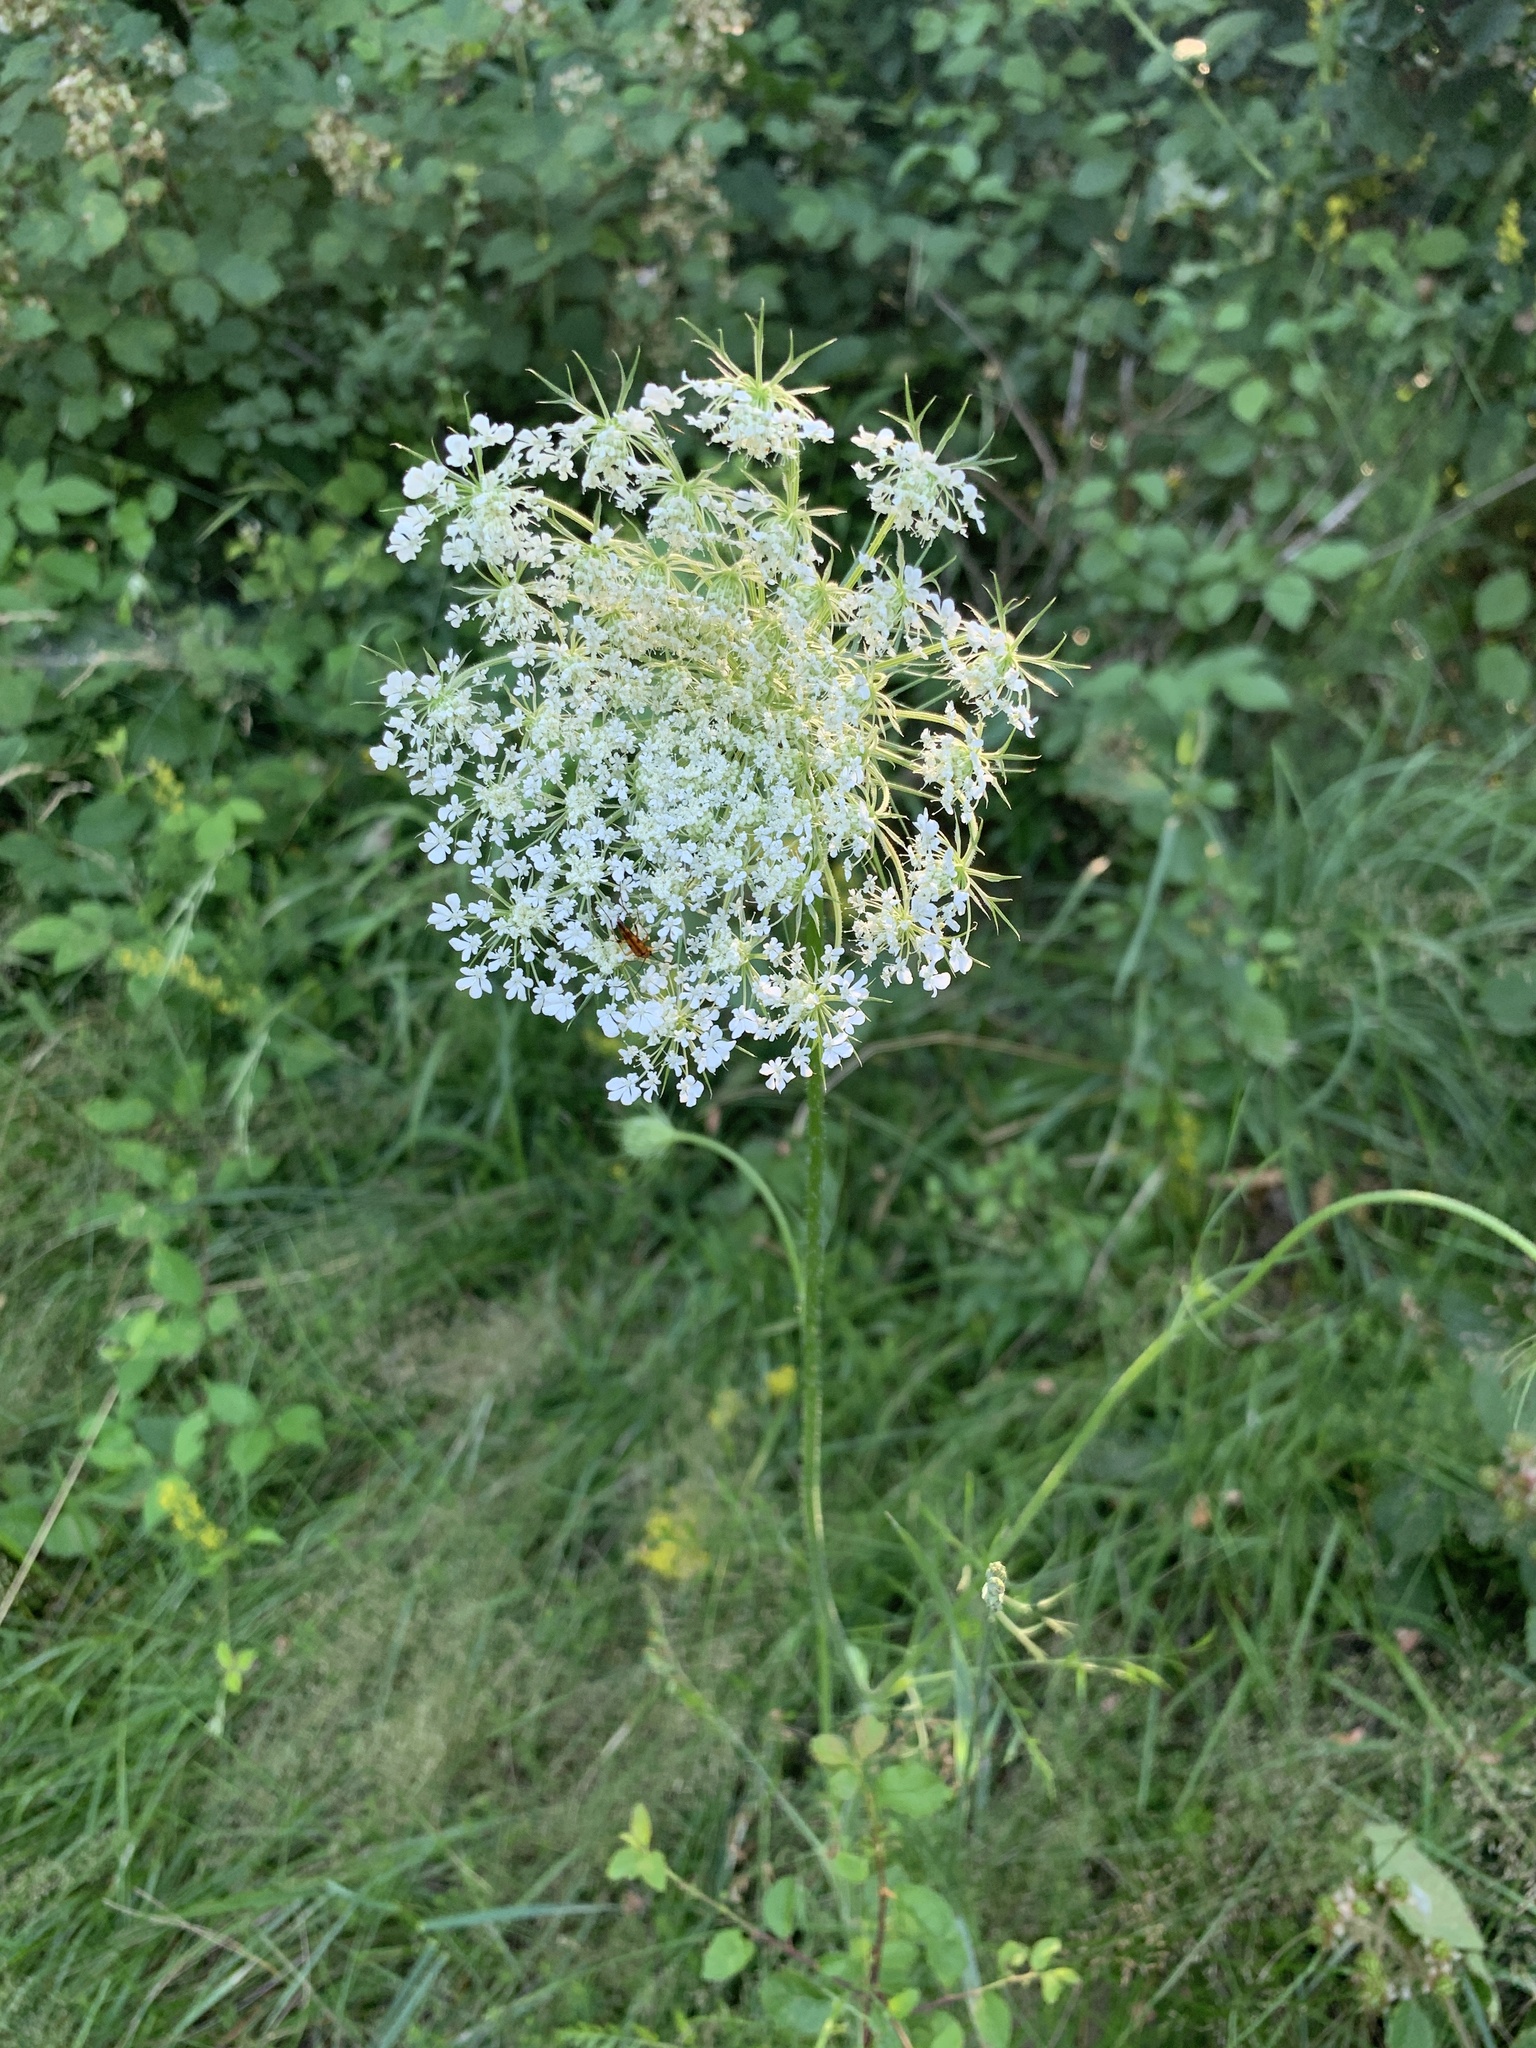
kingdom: Plantae
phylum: Tracheophyta
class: Magnoliopsida
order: Apiales
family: Apiaceae
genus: Daucus
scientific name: Daucus carota
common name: Wild carrot
